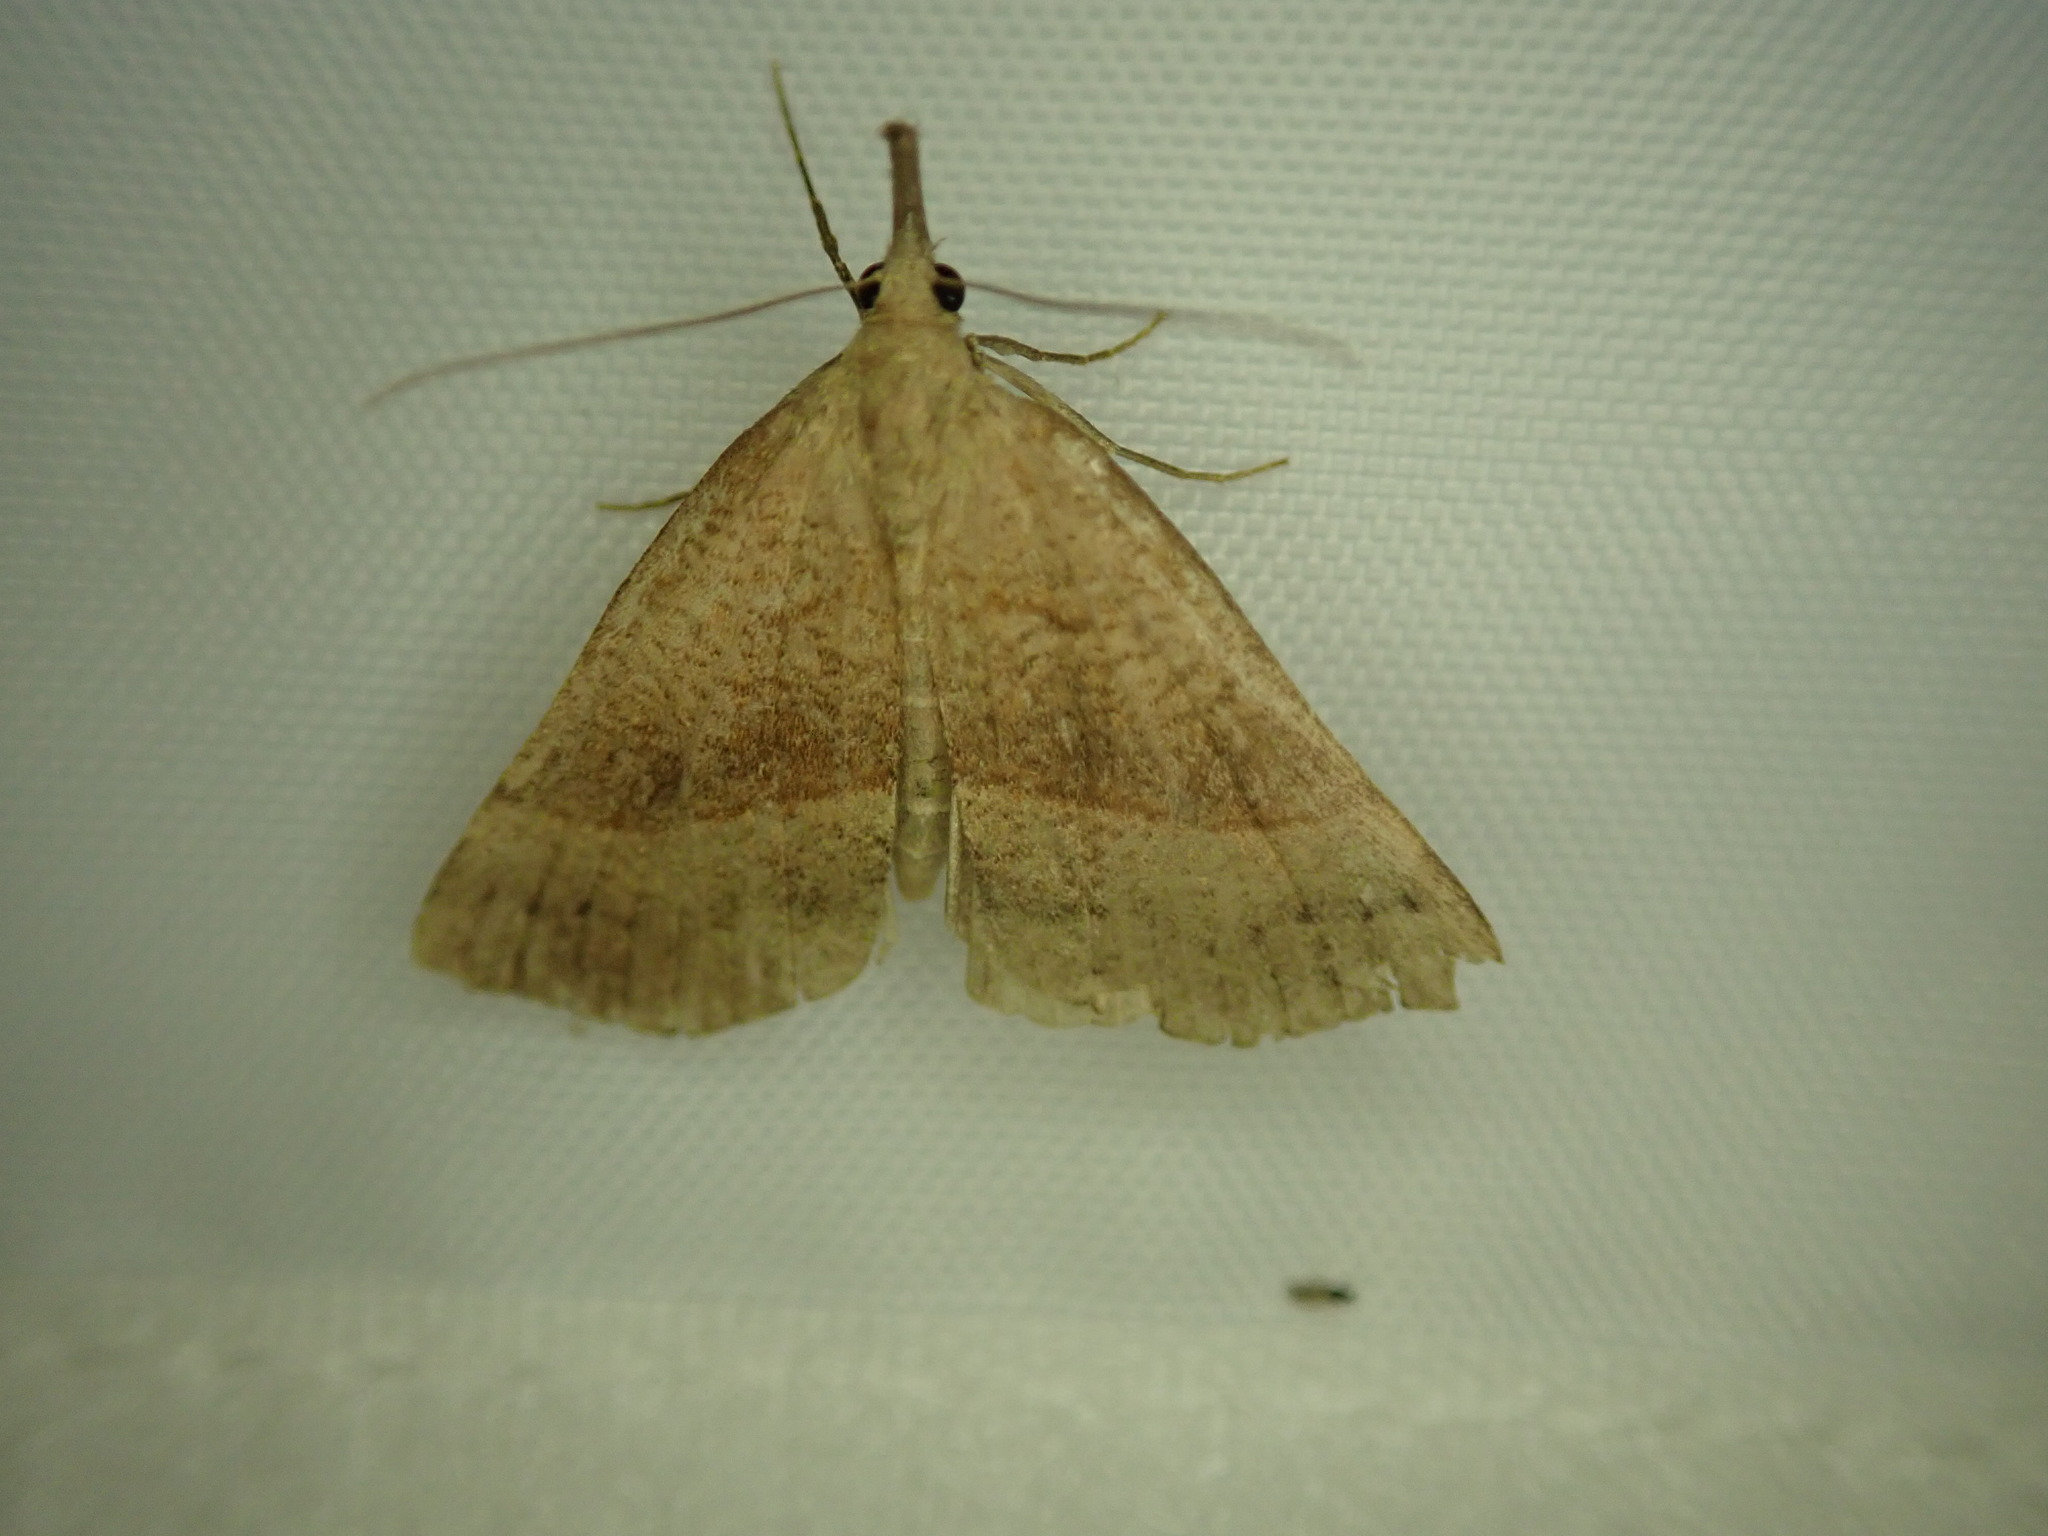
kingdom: Animalia
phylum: Arthropoda
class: Insecta
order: Lepidoptera
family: Erebidae
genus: Hypena
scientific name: Hypena proboscidalis
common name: Snout
